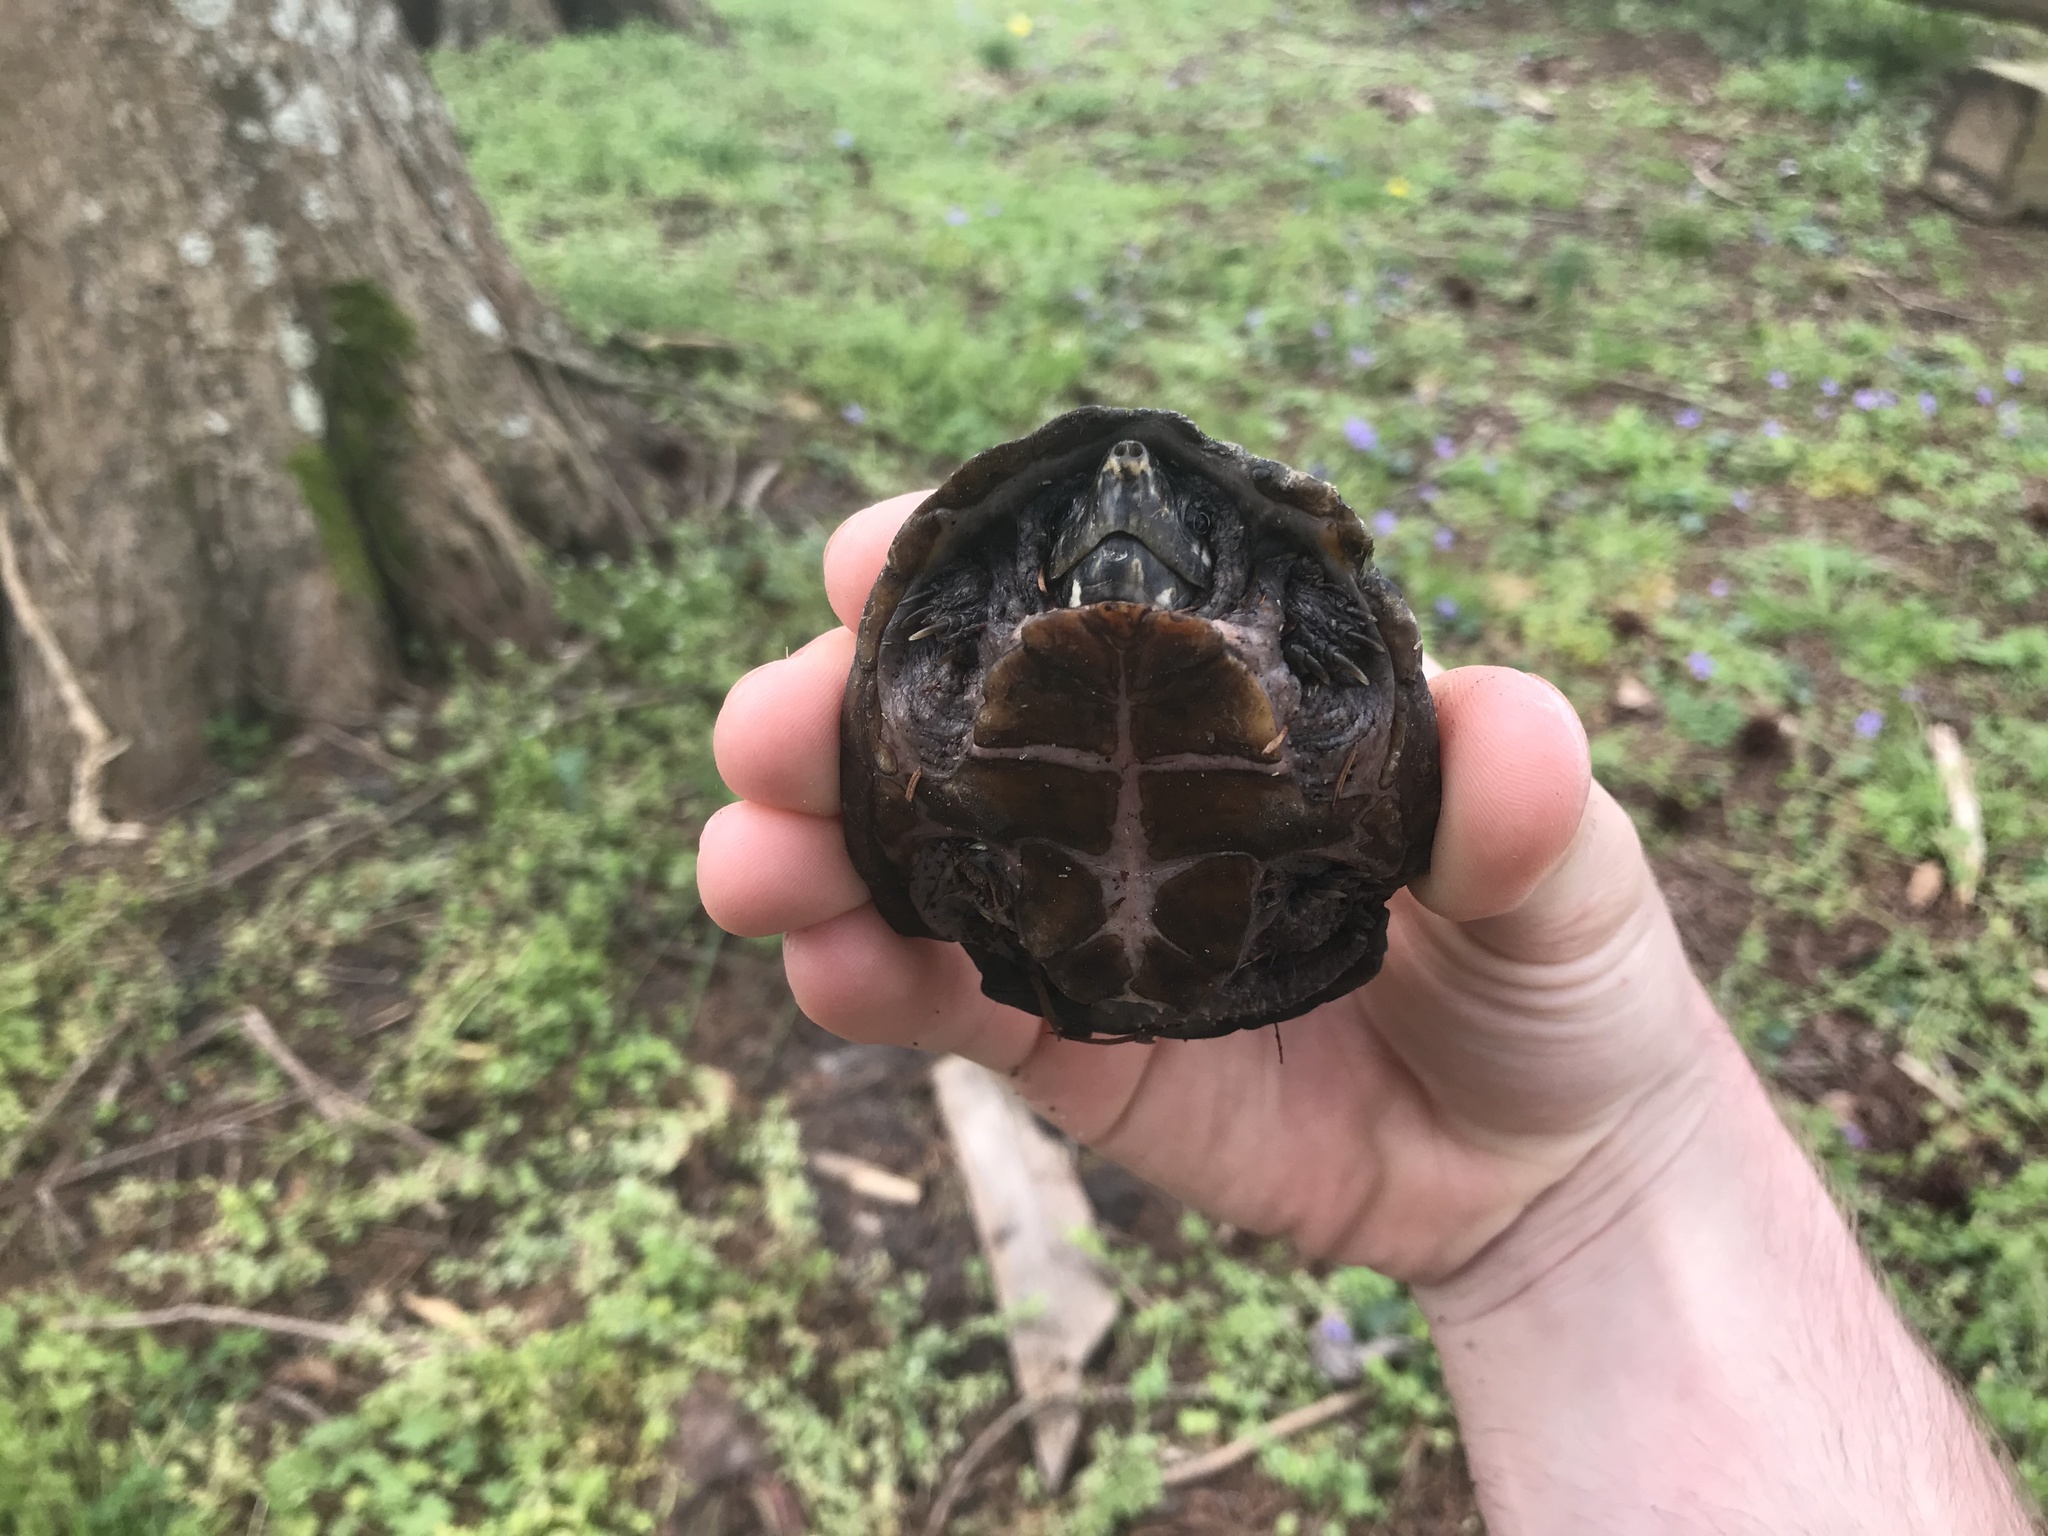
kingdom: Animalia
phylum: Chordata
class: Testudines
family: Kinosternidae
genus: Sternotherus
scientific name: Sternotherus odoratus
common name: Common musk turtle
